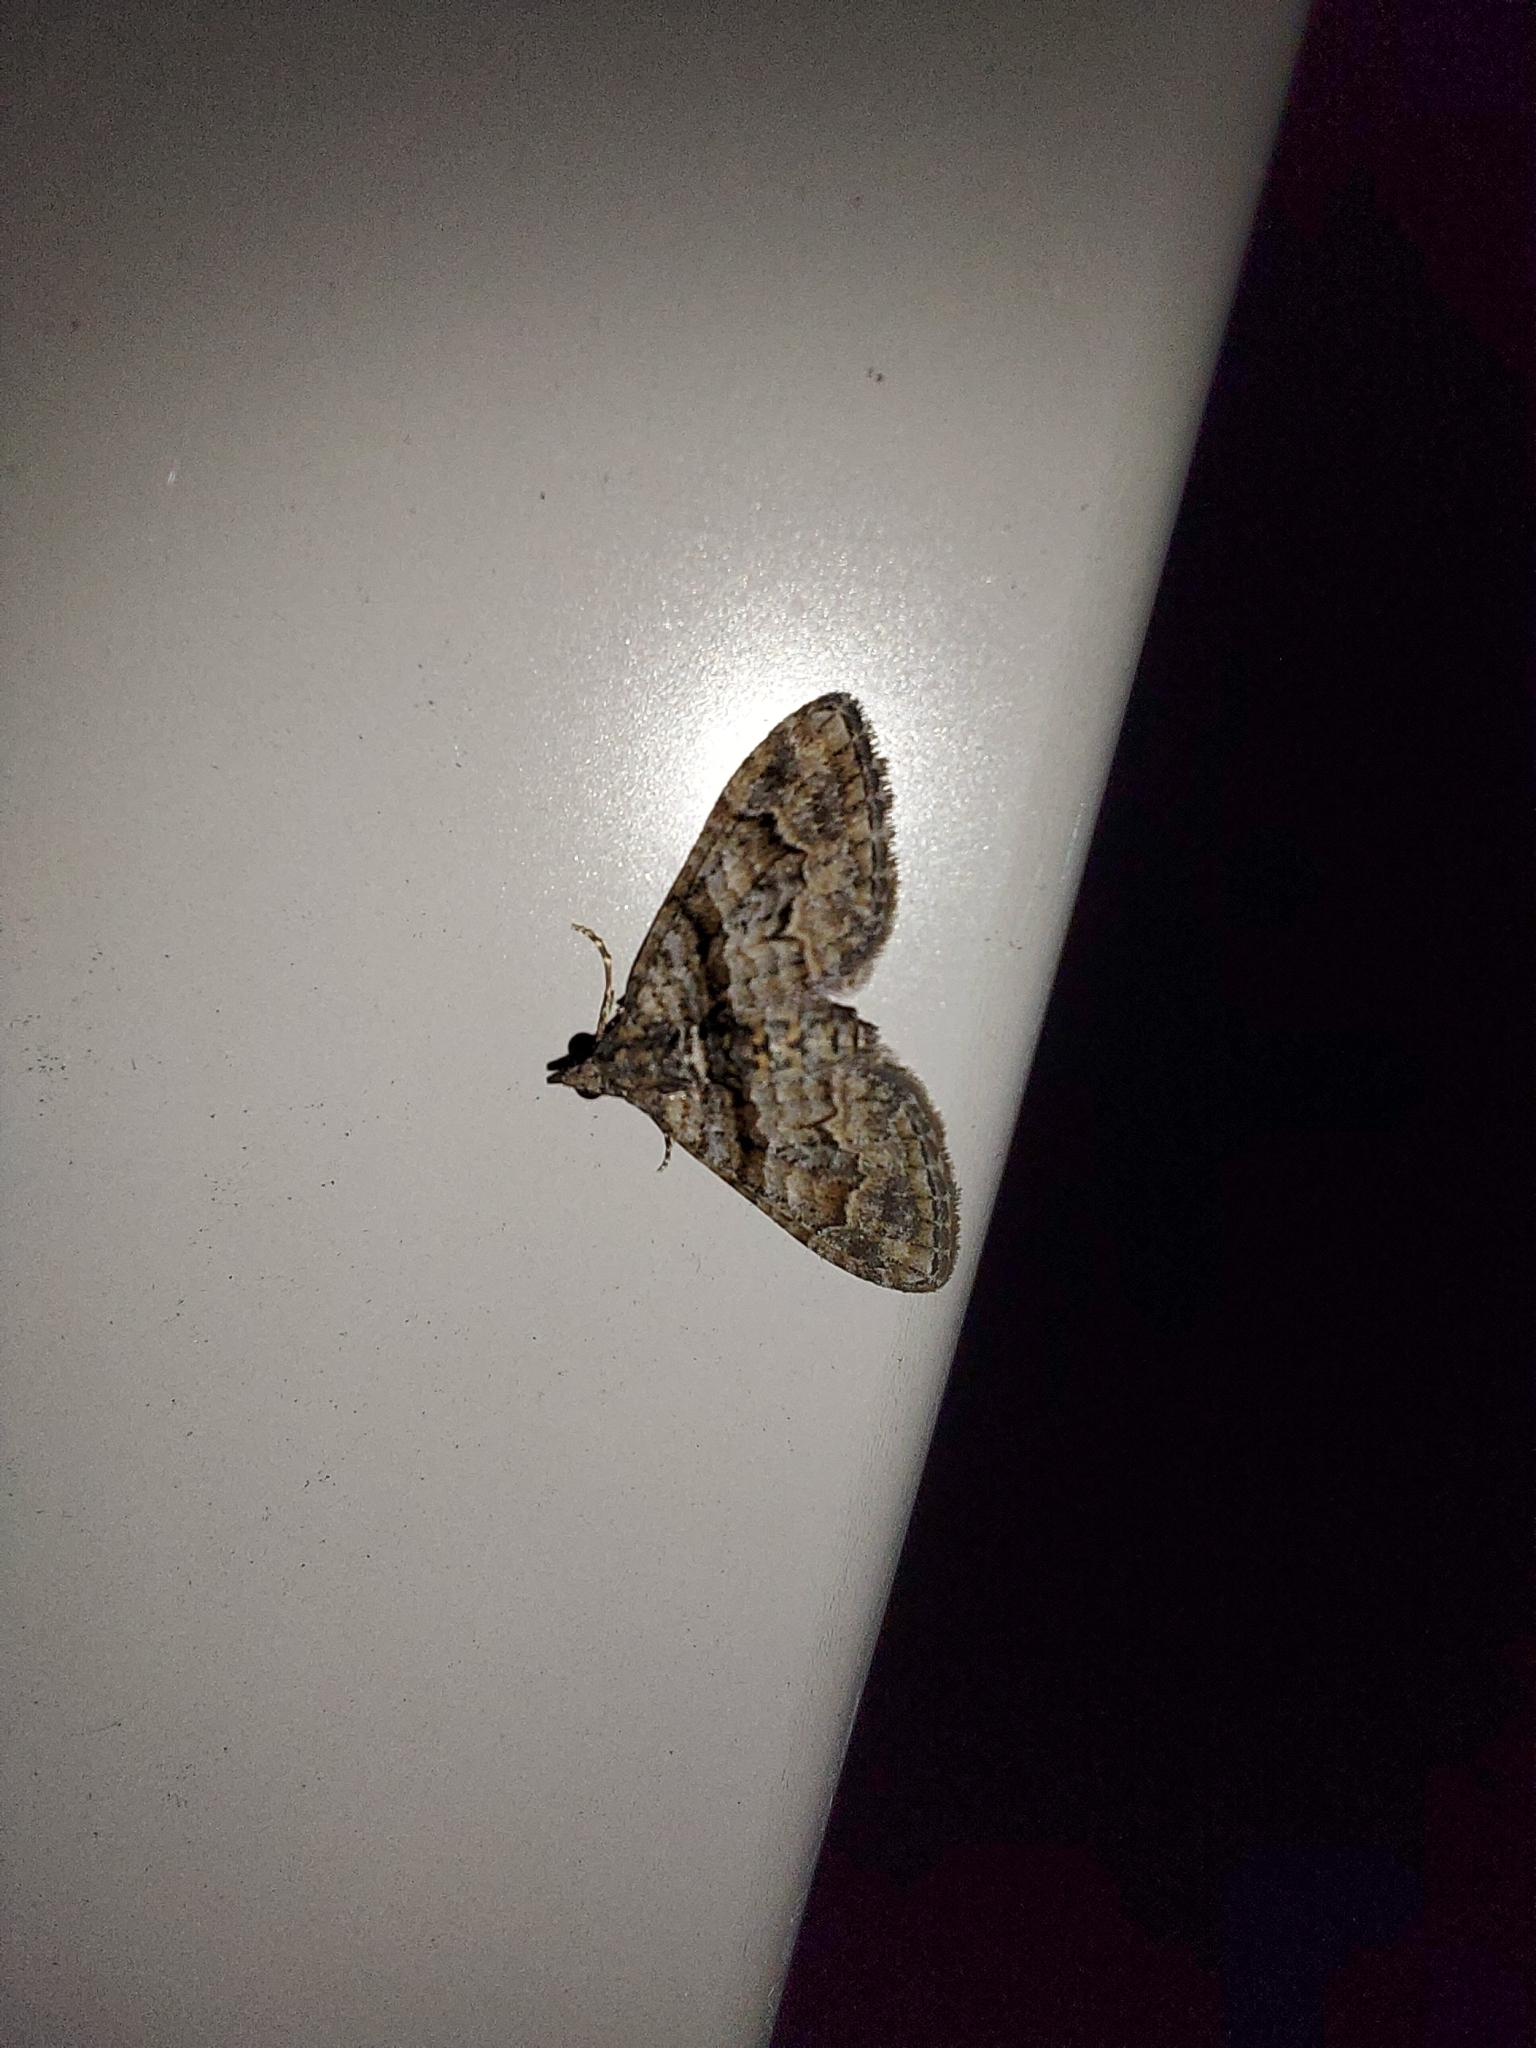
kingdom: Animalia
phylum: Arthropoda
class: Insecta
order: Lepidoptera
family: Geometridae
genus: Phrissogonus
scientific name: Phrissogonus laticostata
